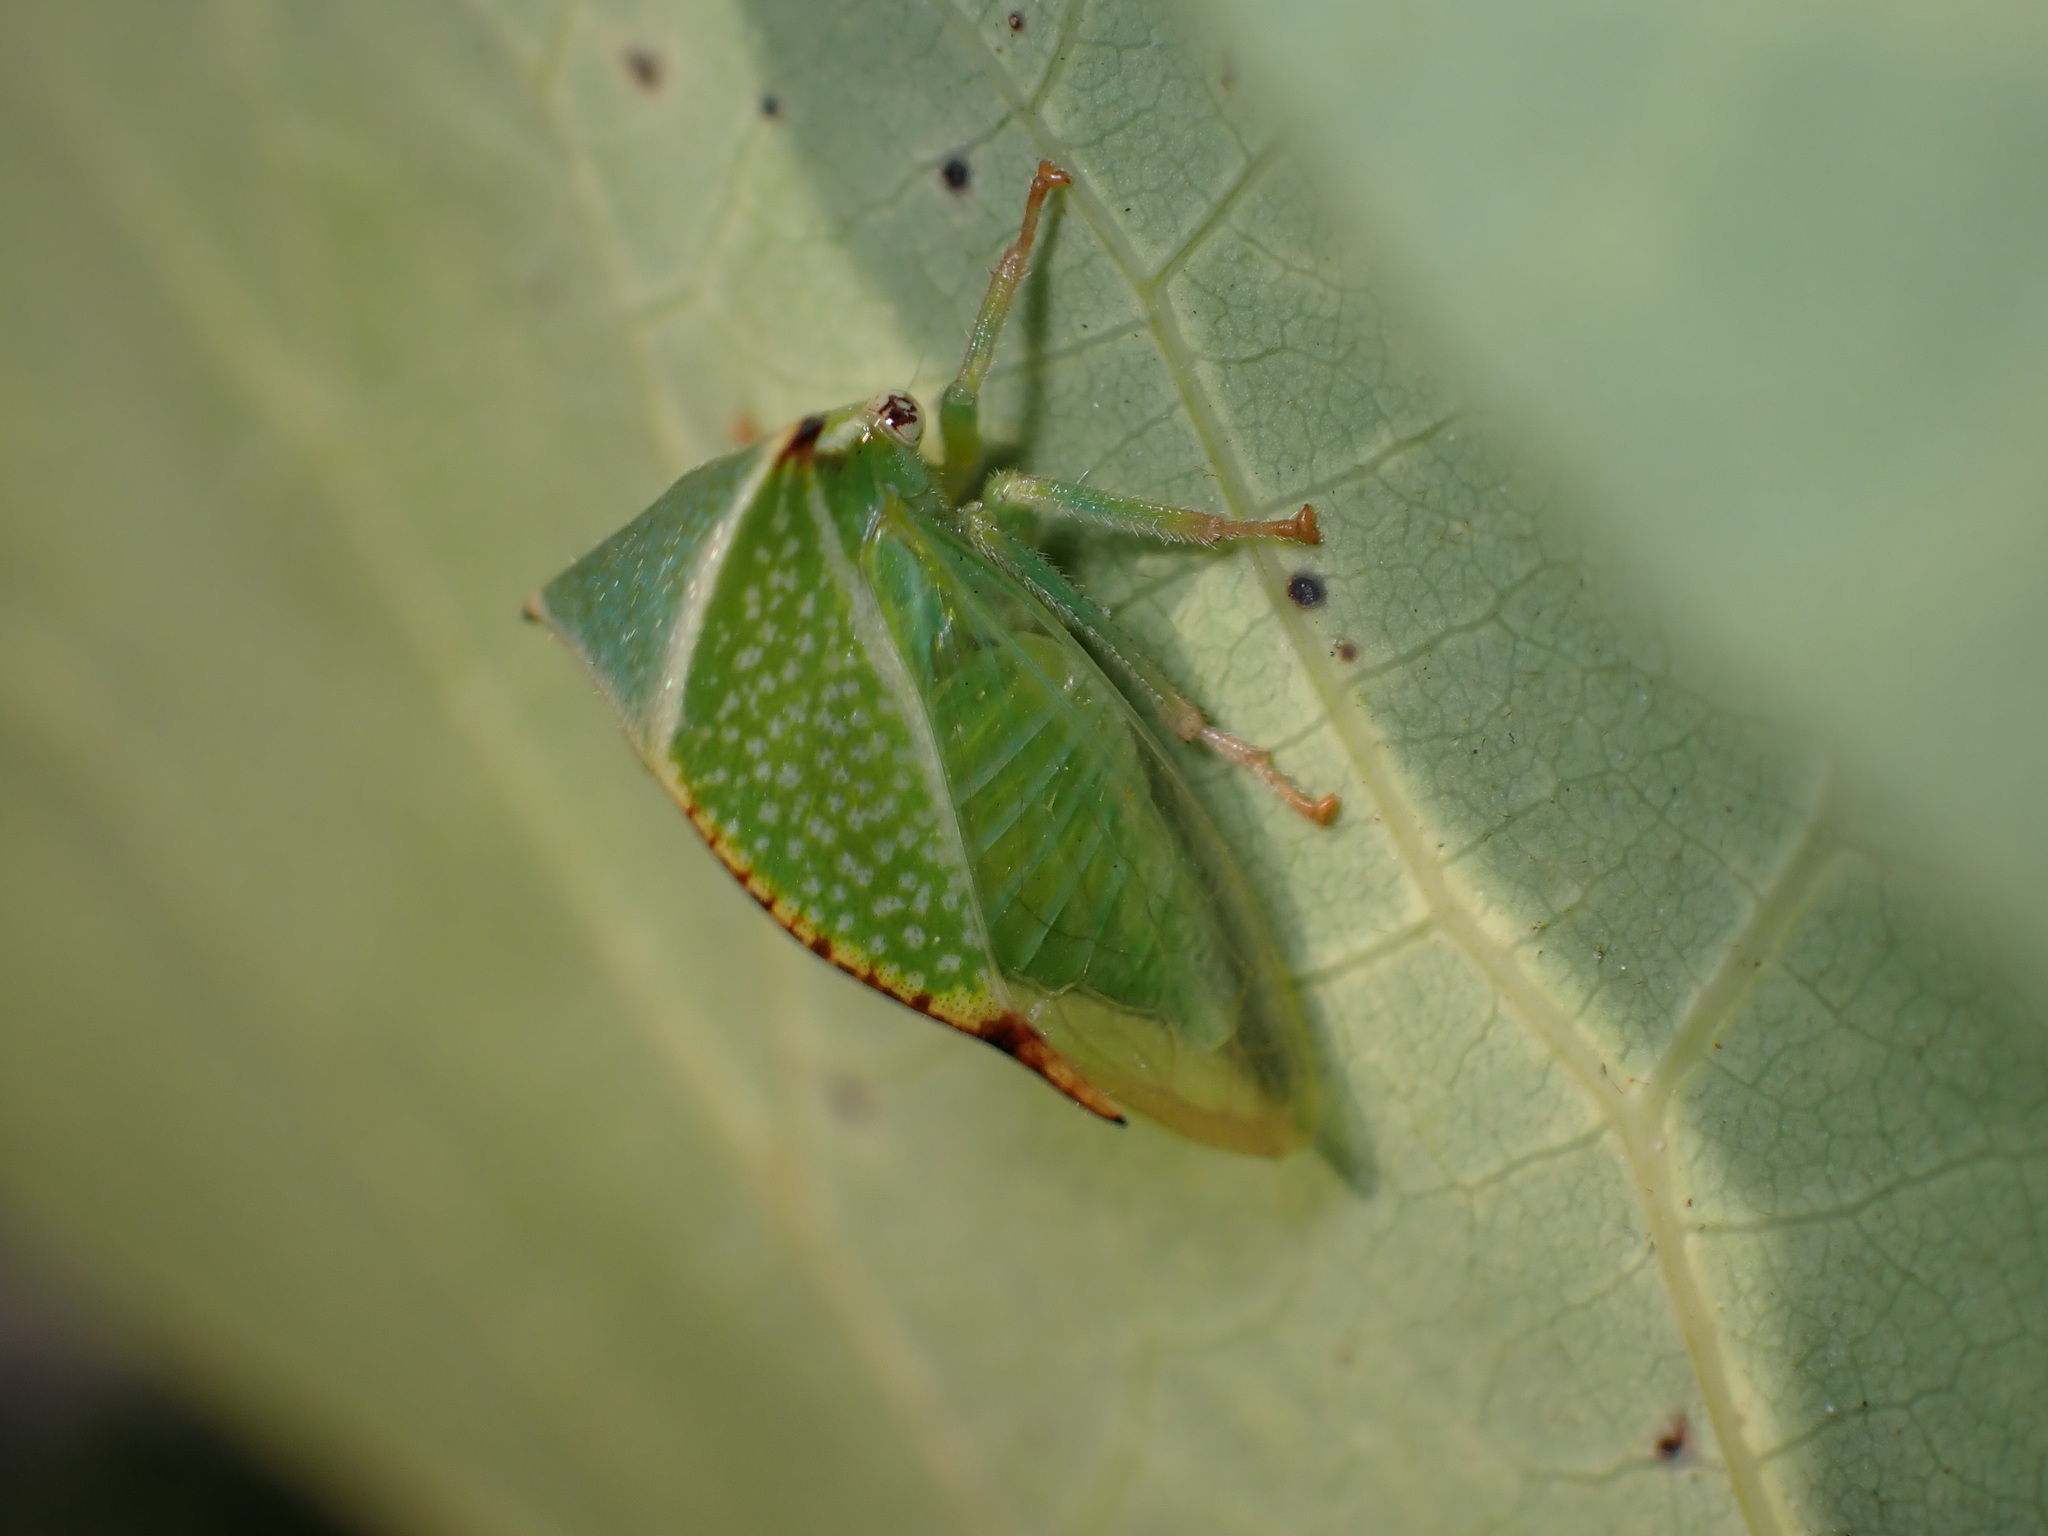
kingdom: Animalia
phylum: Arthropoda
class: Insecta
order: Hemiptera
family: Membracidae
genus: Stictocephala
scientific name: Stictocephala bisonia
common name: American buffalo treehopper
